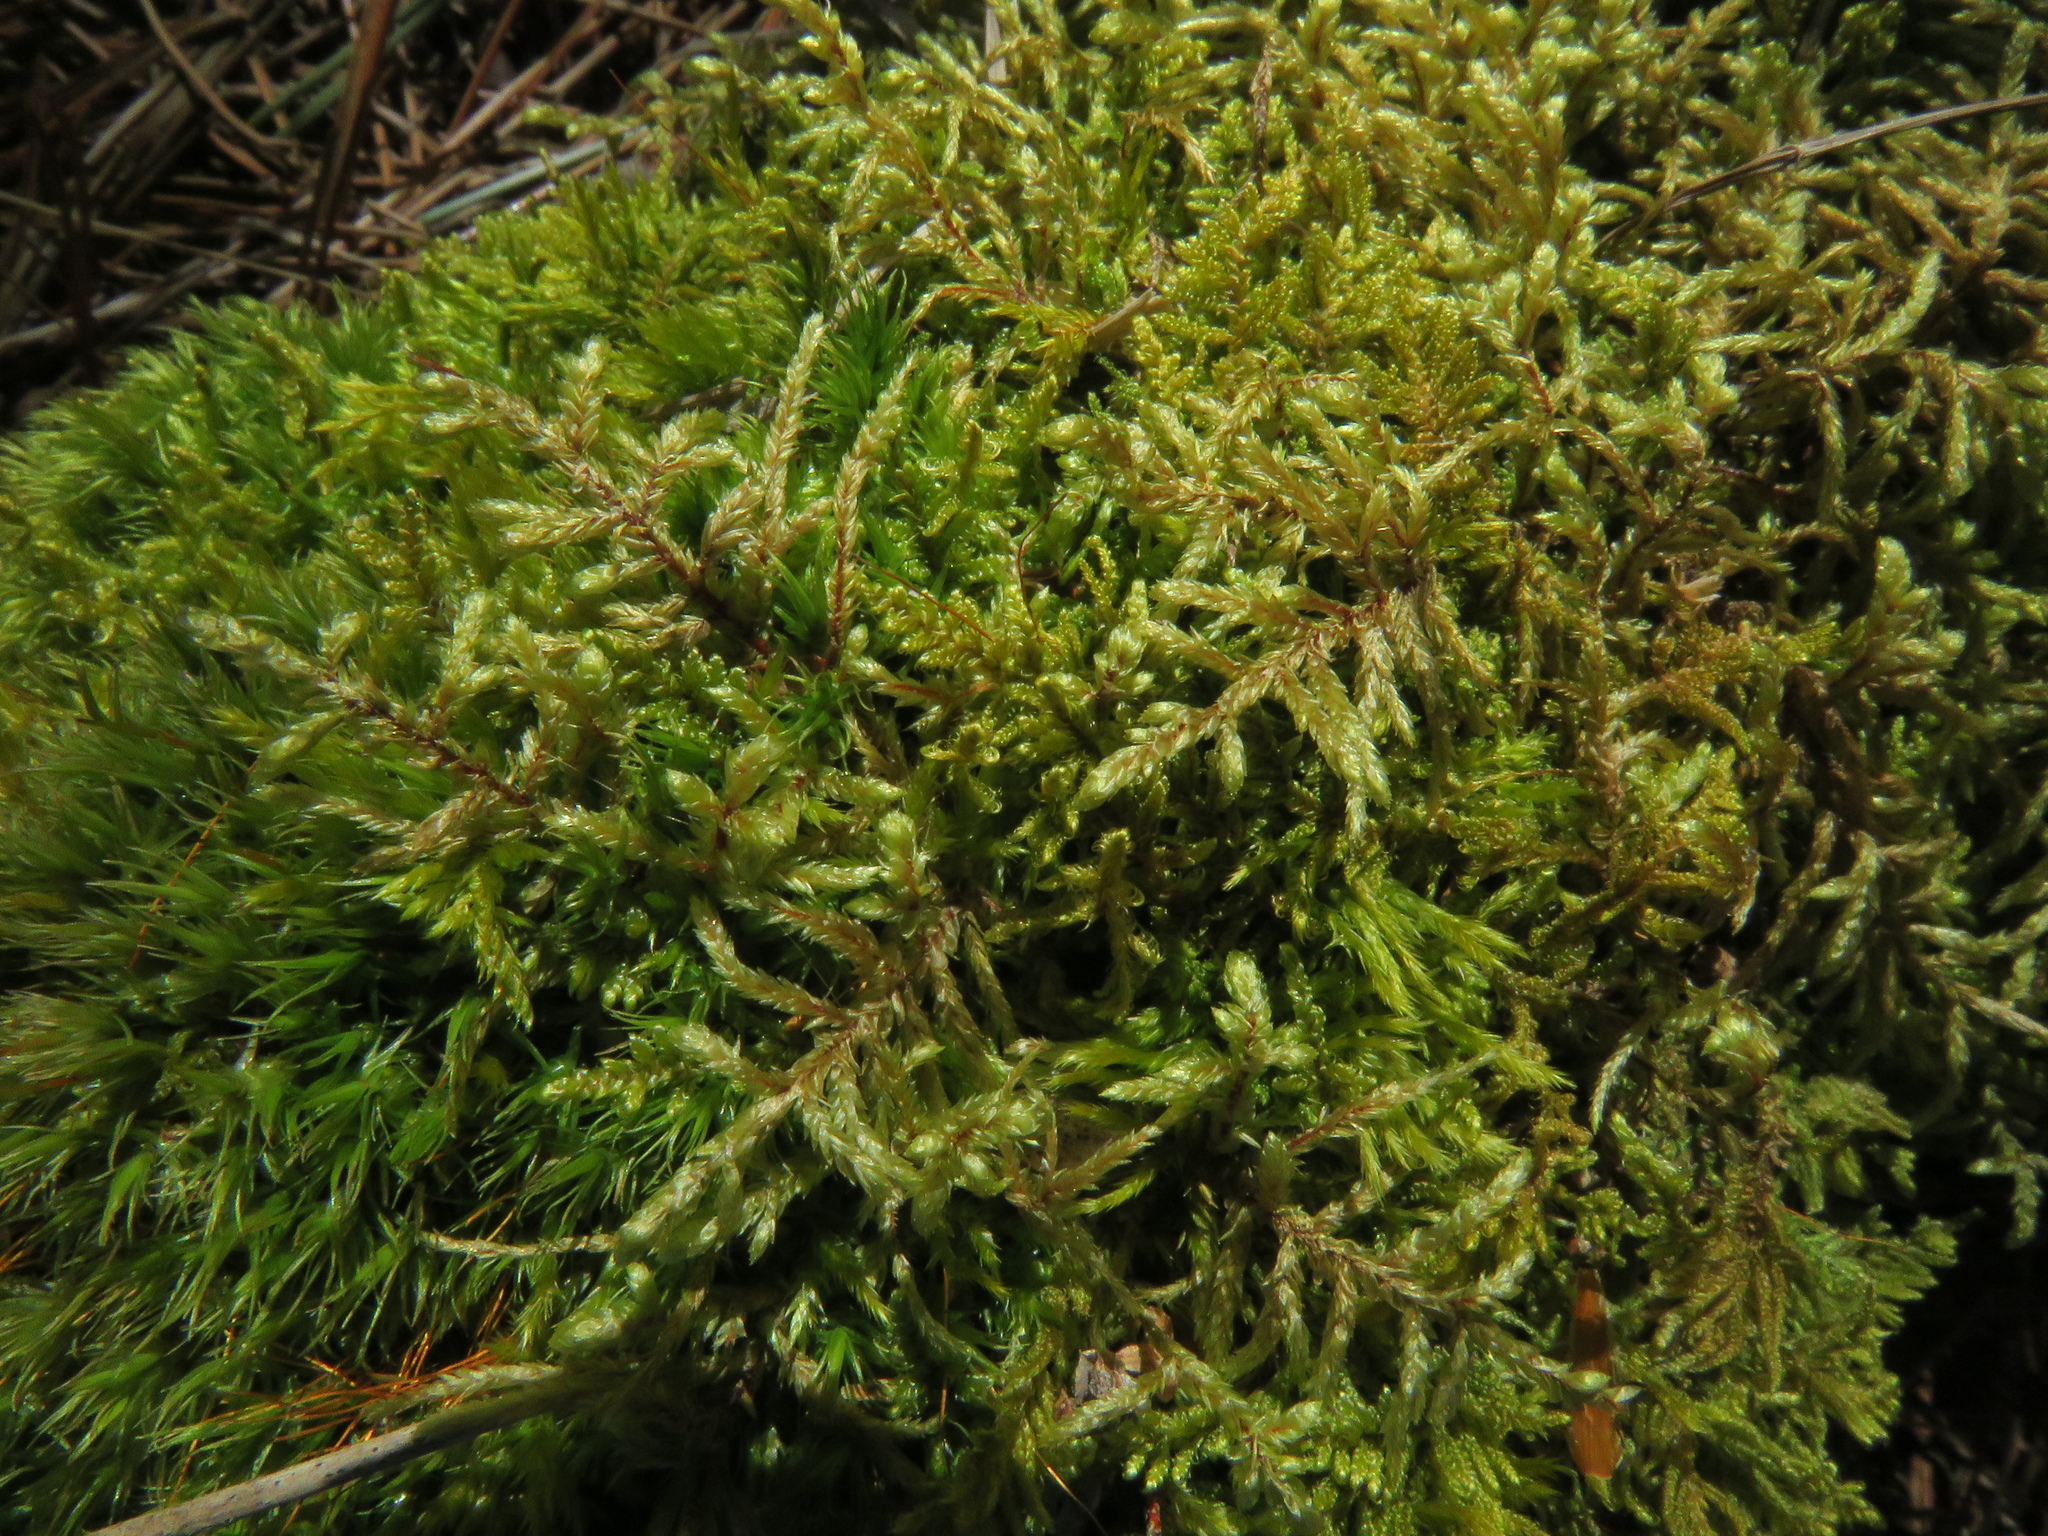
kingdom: Plantae
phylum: Bryophyta
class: Bryopsida
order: Hypnales
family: Hylocomiaceae
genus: Pleurozium
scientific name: Pleurozium schreberi
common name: Red-stemmed feather moss
